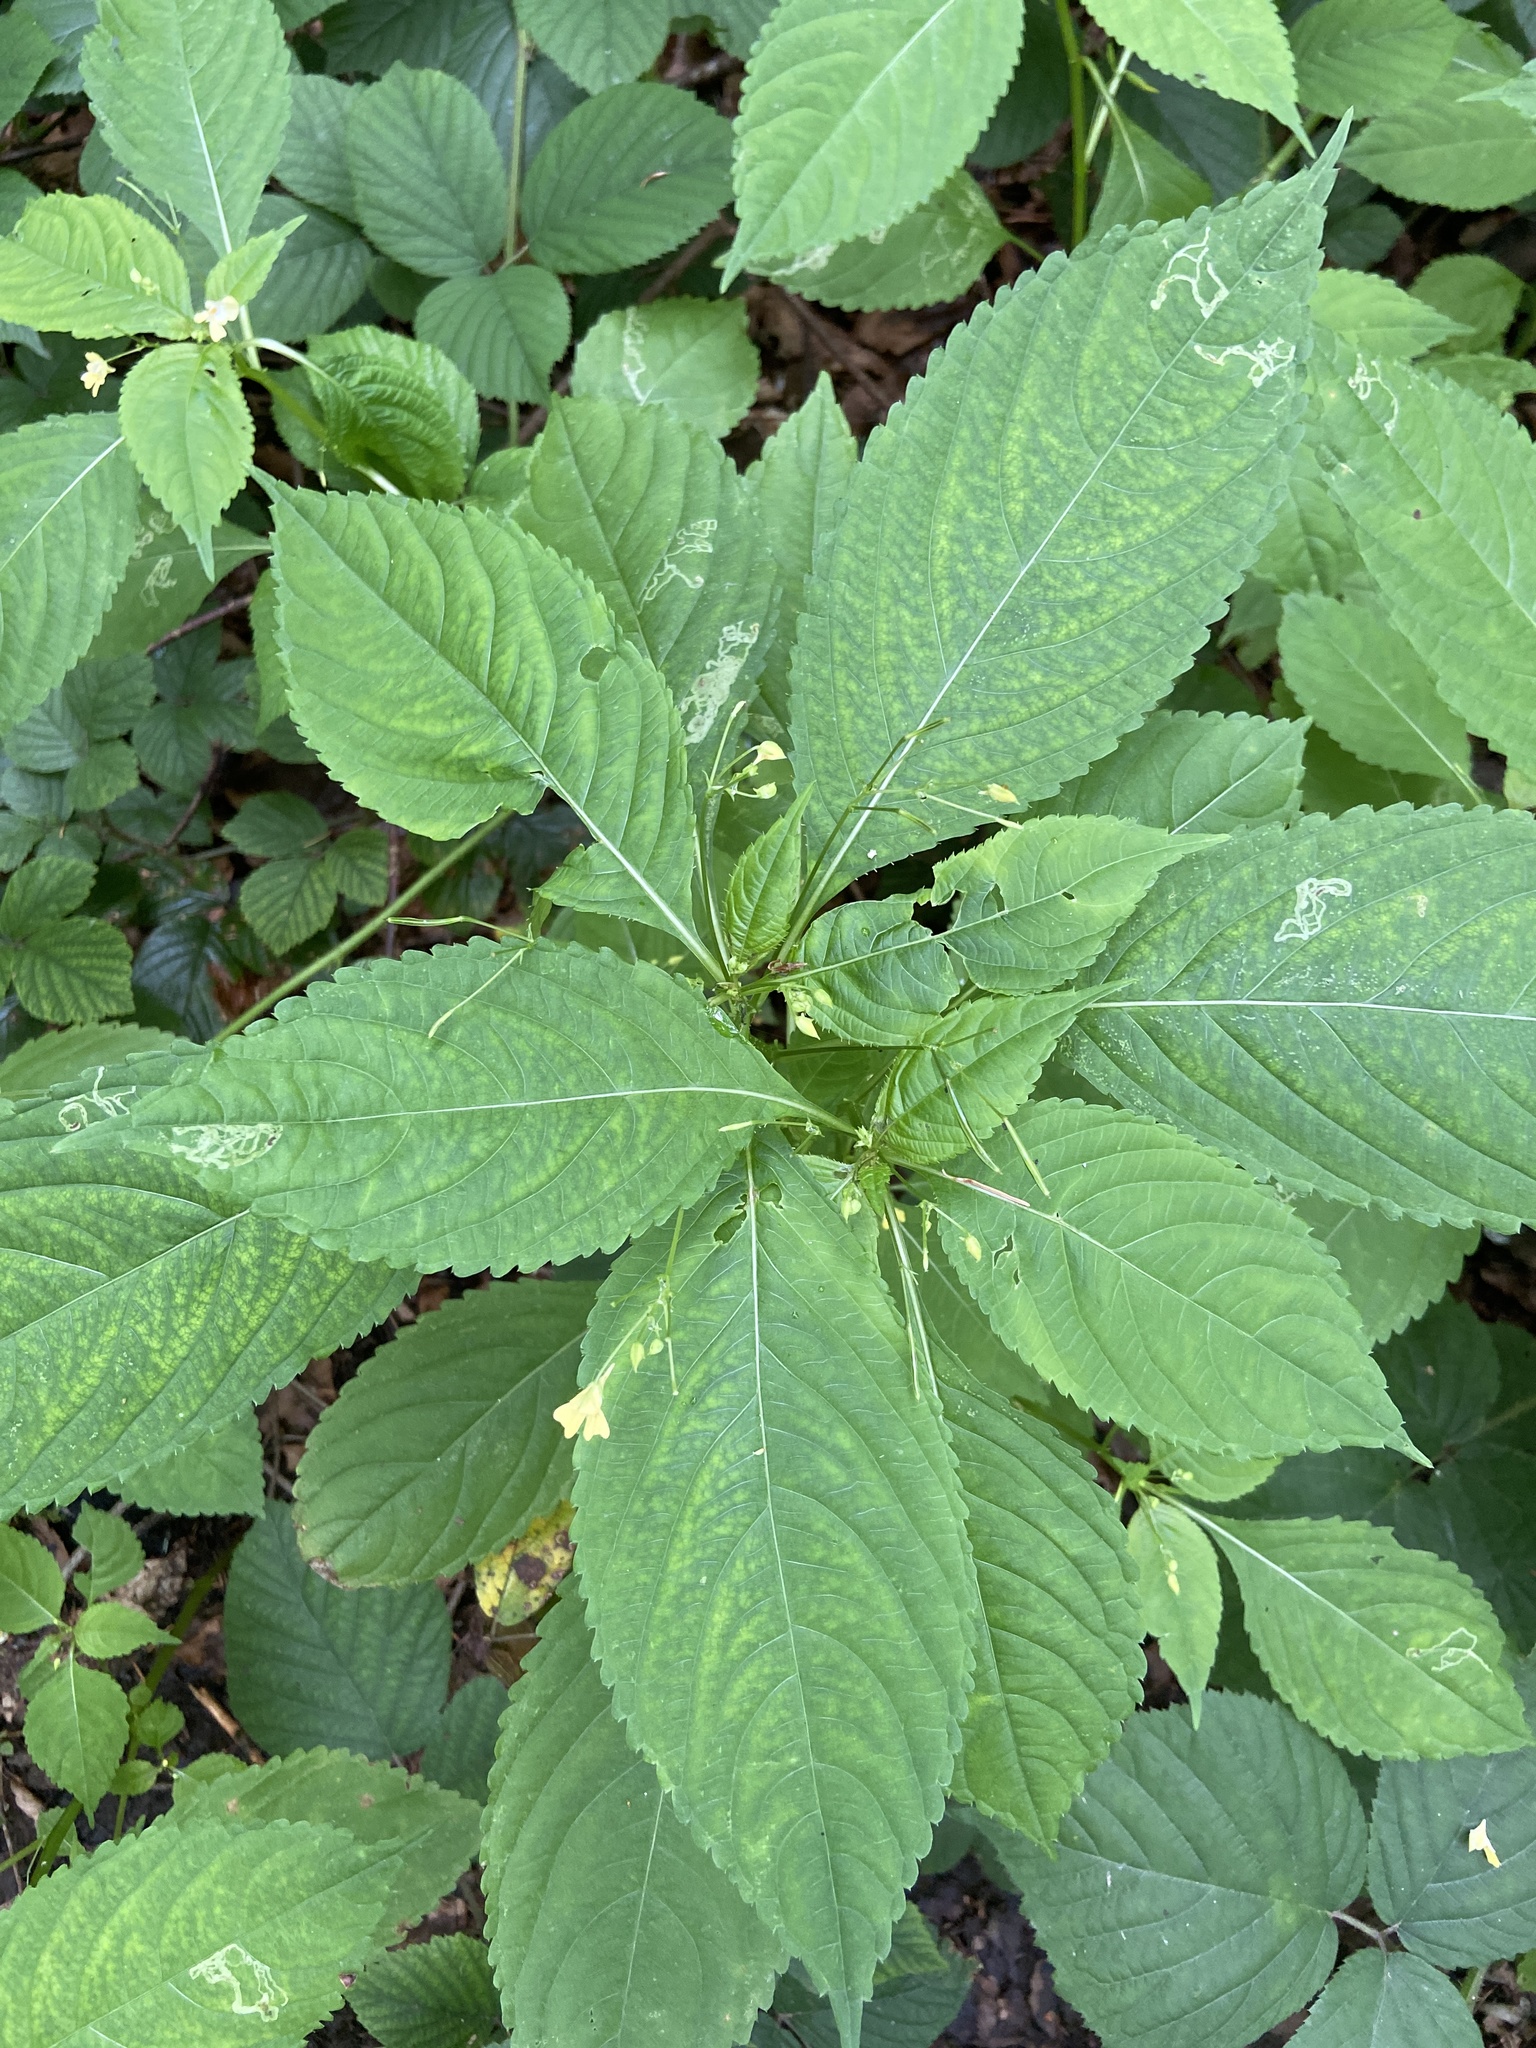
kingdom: Plantae
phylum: Tracheophyta
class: Magnoliopsida
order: Ericales
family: Balsaminaceae
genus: Impatiens
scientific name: Impatiens parviflora
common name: Small balsam
